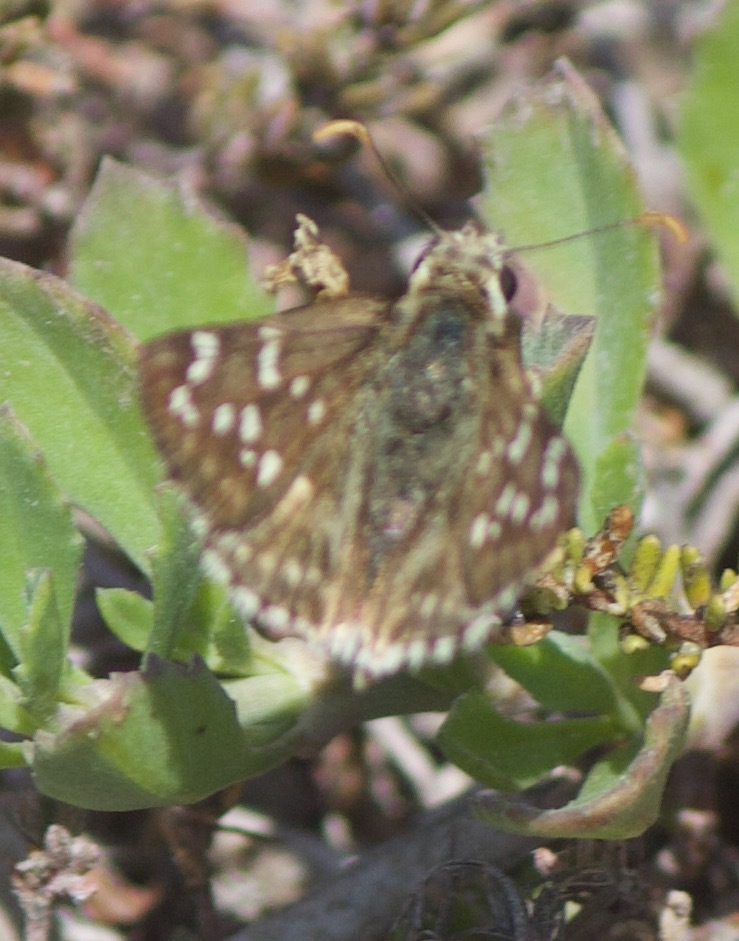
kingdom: Animalia
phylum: Arthropoda
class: Insecta
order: Lepidoptera
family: Hesperiidae
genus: Chirgus
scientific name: Chirgus fides
